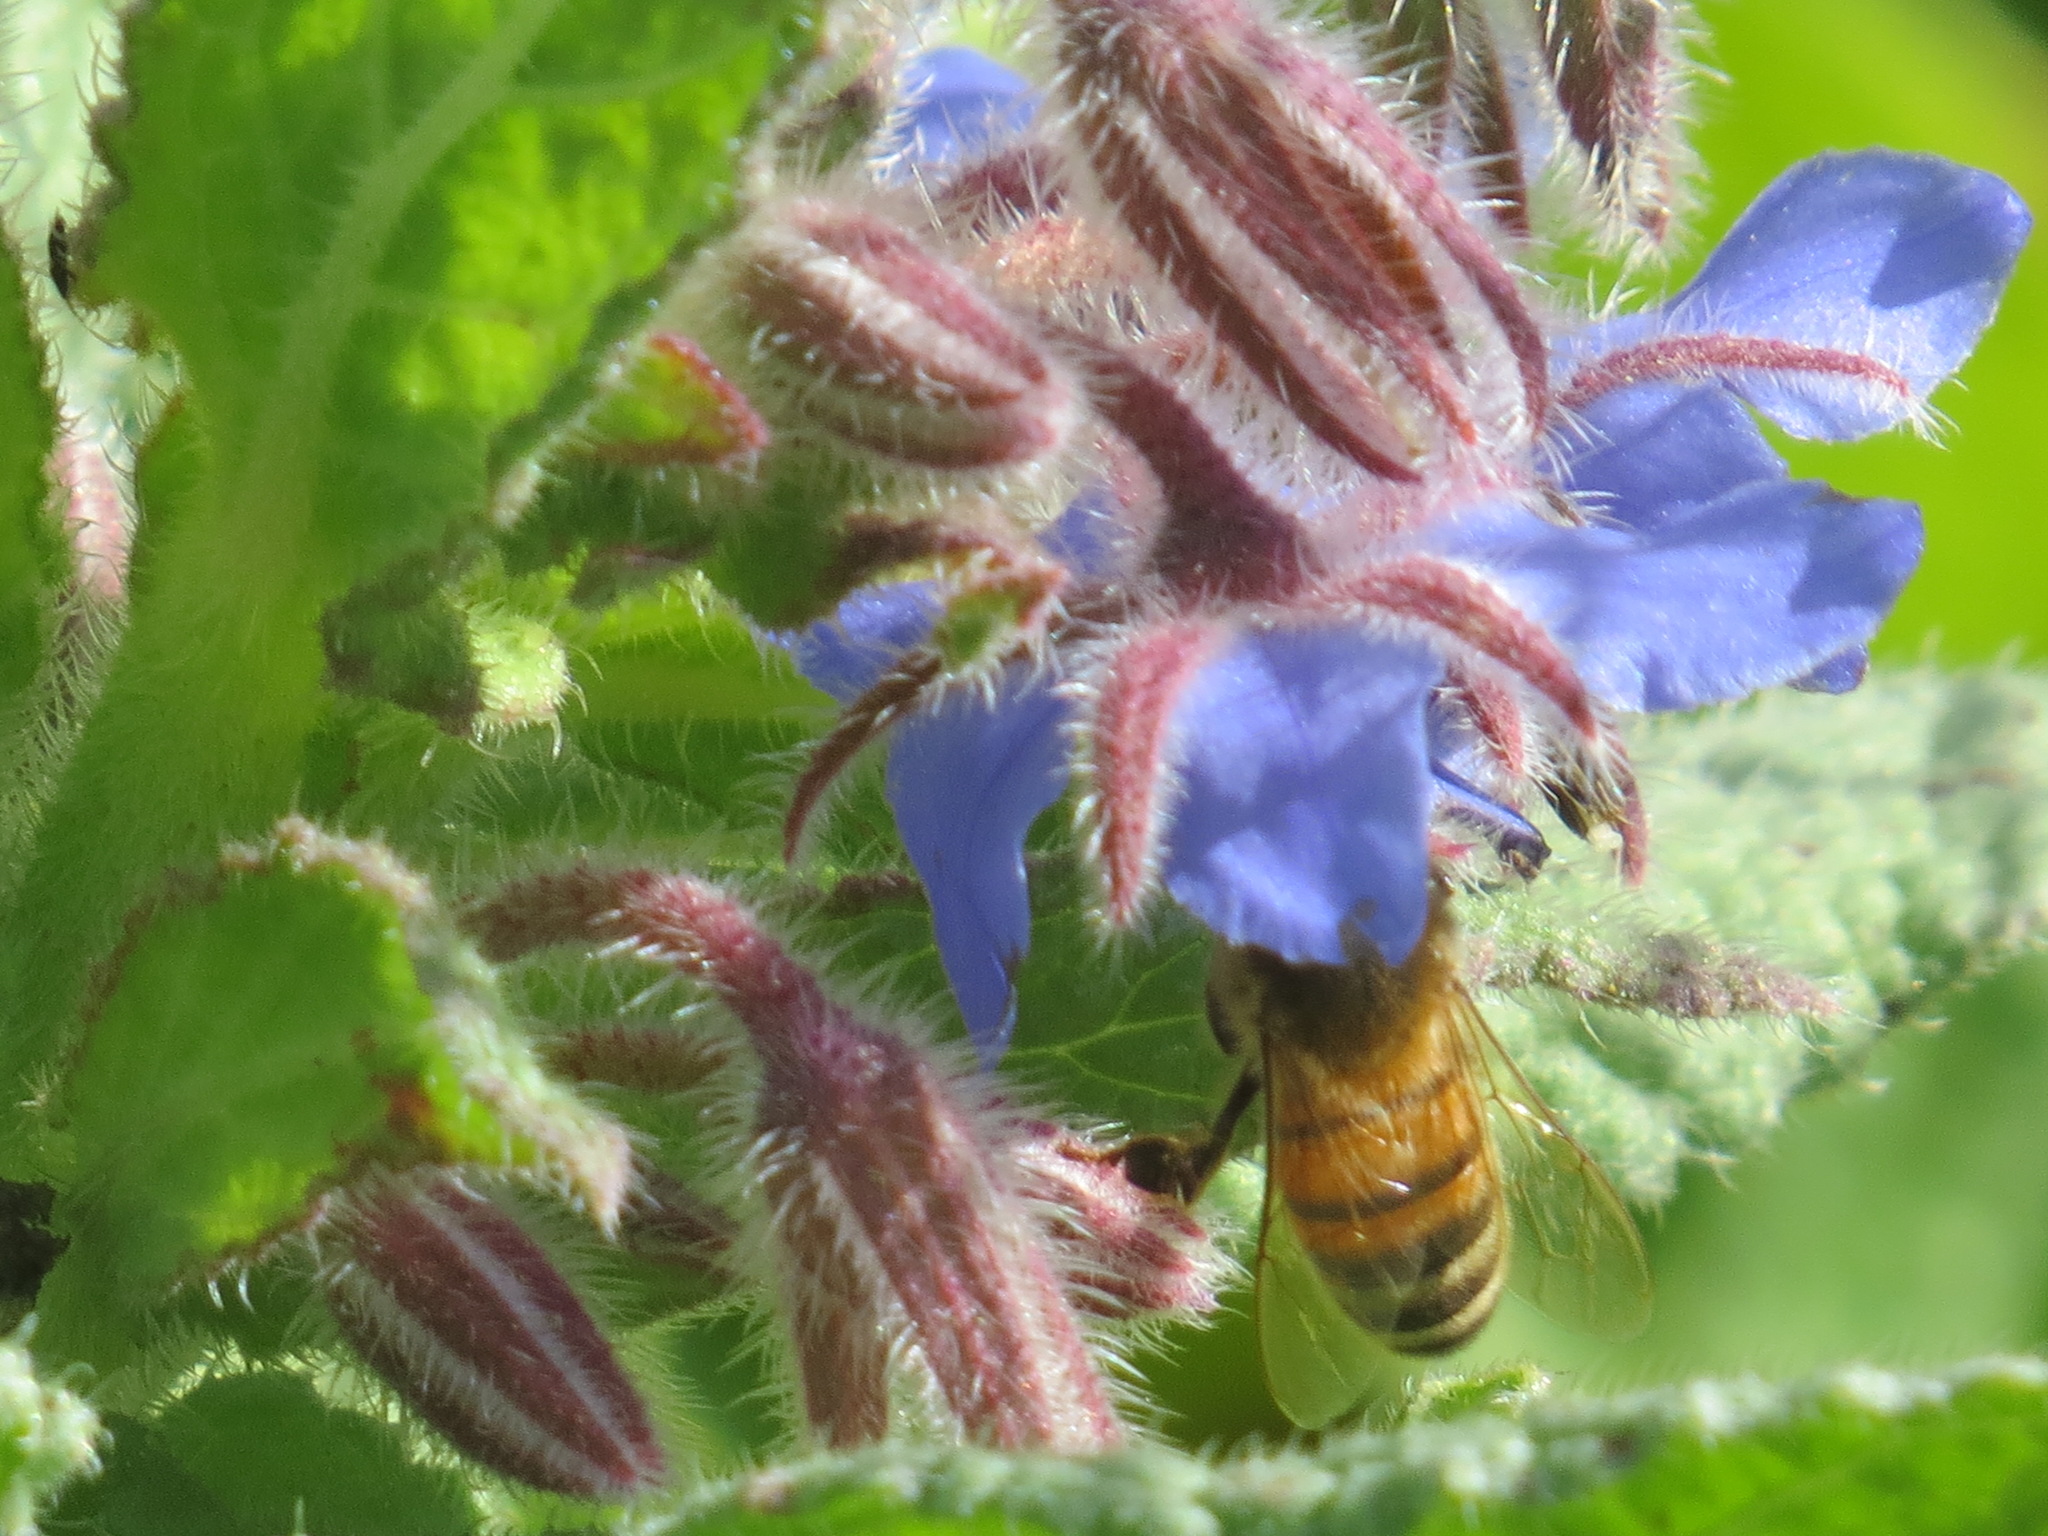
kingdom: Animalia
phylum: Arthropoda
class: Insecta
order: Hymenoptera
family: Apidae
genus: Apis
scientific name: Apis mellifera
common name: Honey bee
